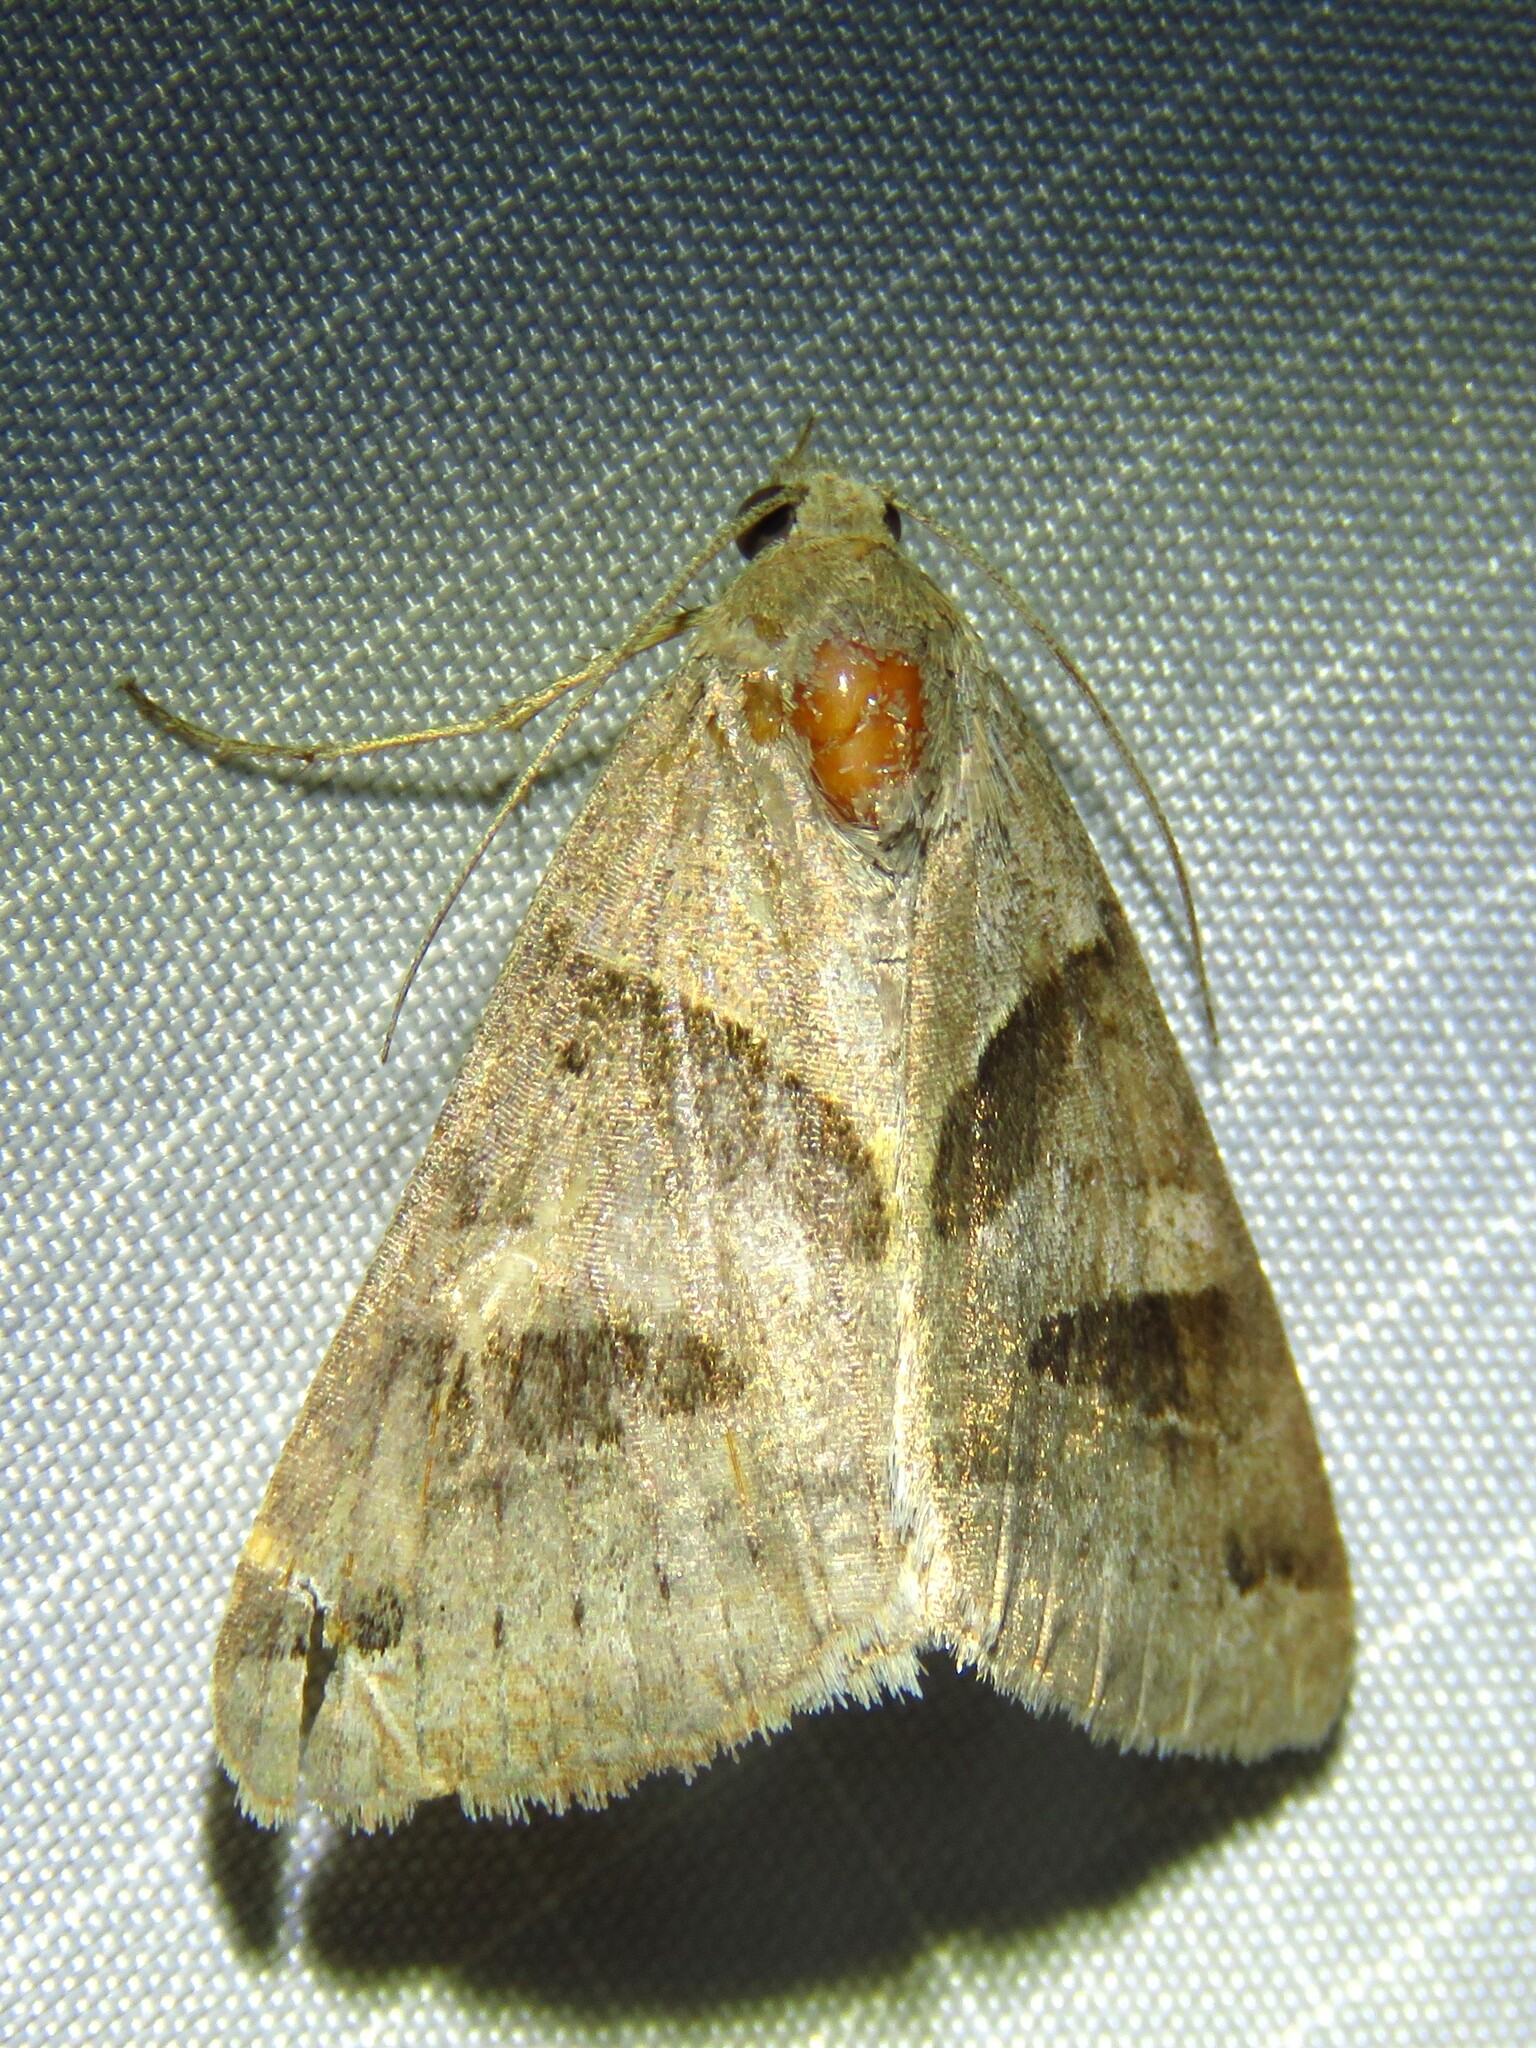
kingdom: Animalia
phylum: Arthropoda
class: Insecta
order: Lepidoptera
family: Erebidae
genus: Caenurgina
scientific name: Caenurgina erechtea
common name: Forage looper moth
